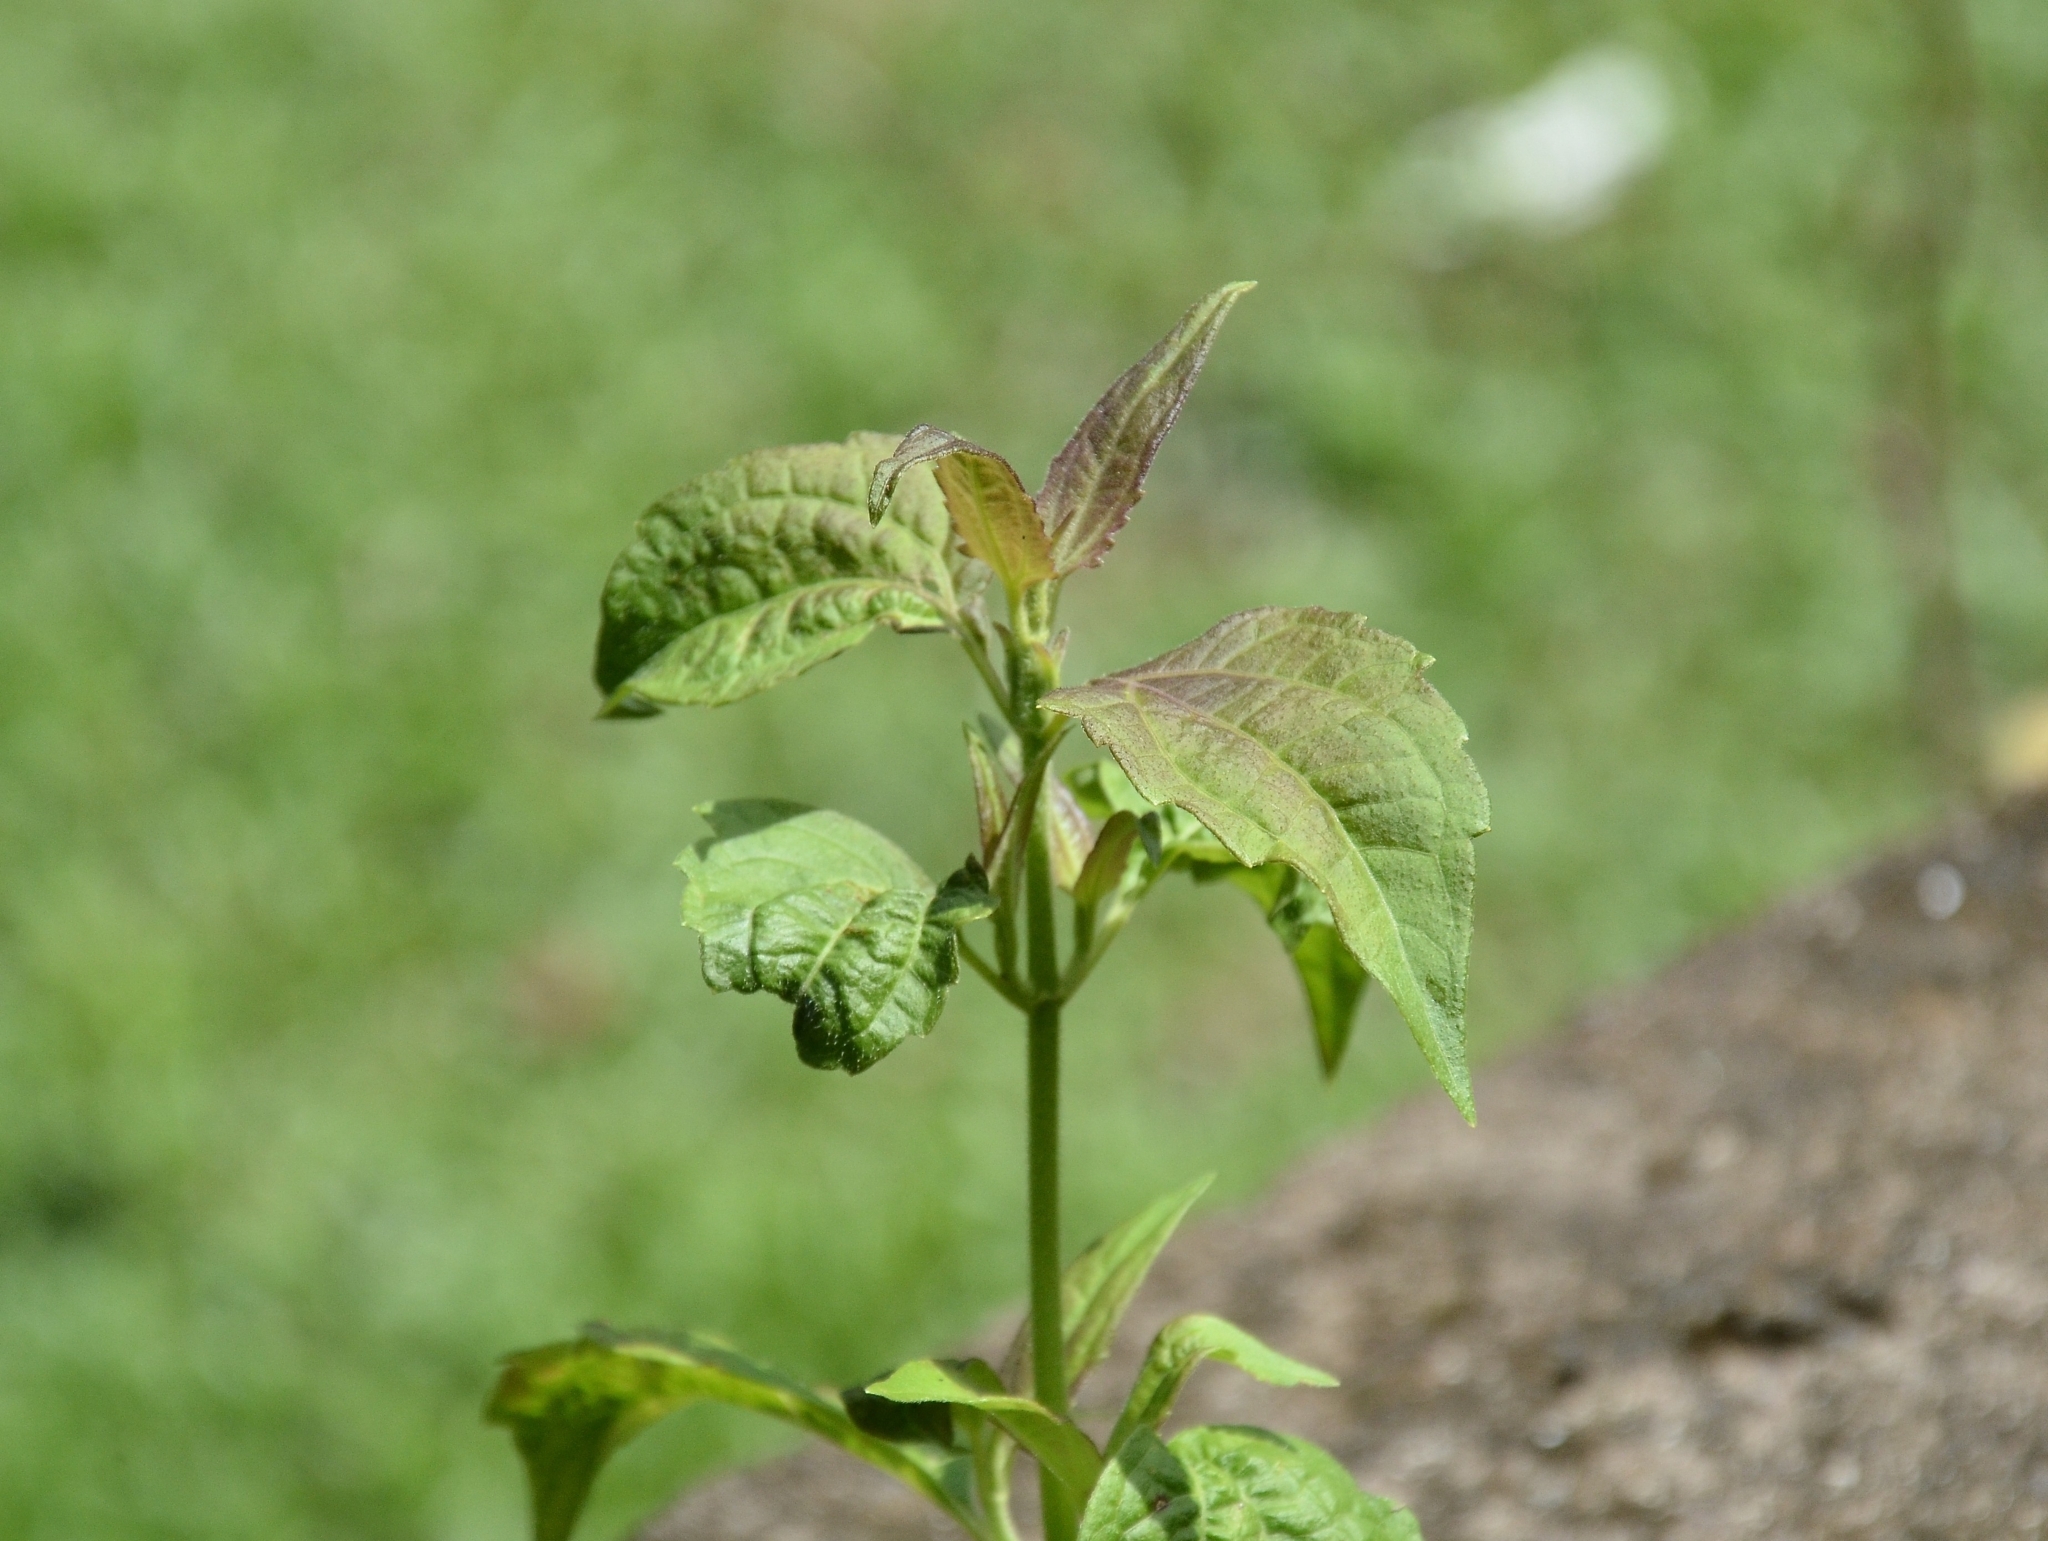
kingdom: Plantae
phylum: Tracheophyta
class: Magnoliopsida
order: Asterales
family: Asteraceae
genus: Chromolaena
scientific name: Chromolaena odorata
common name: Siamweed
